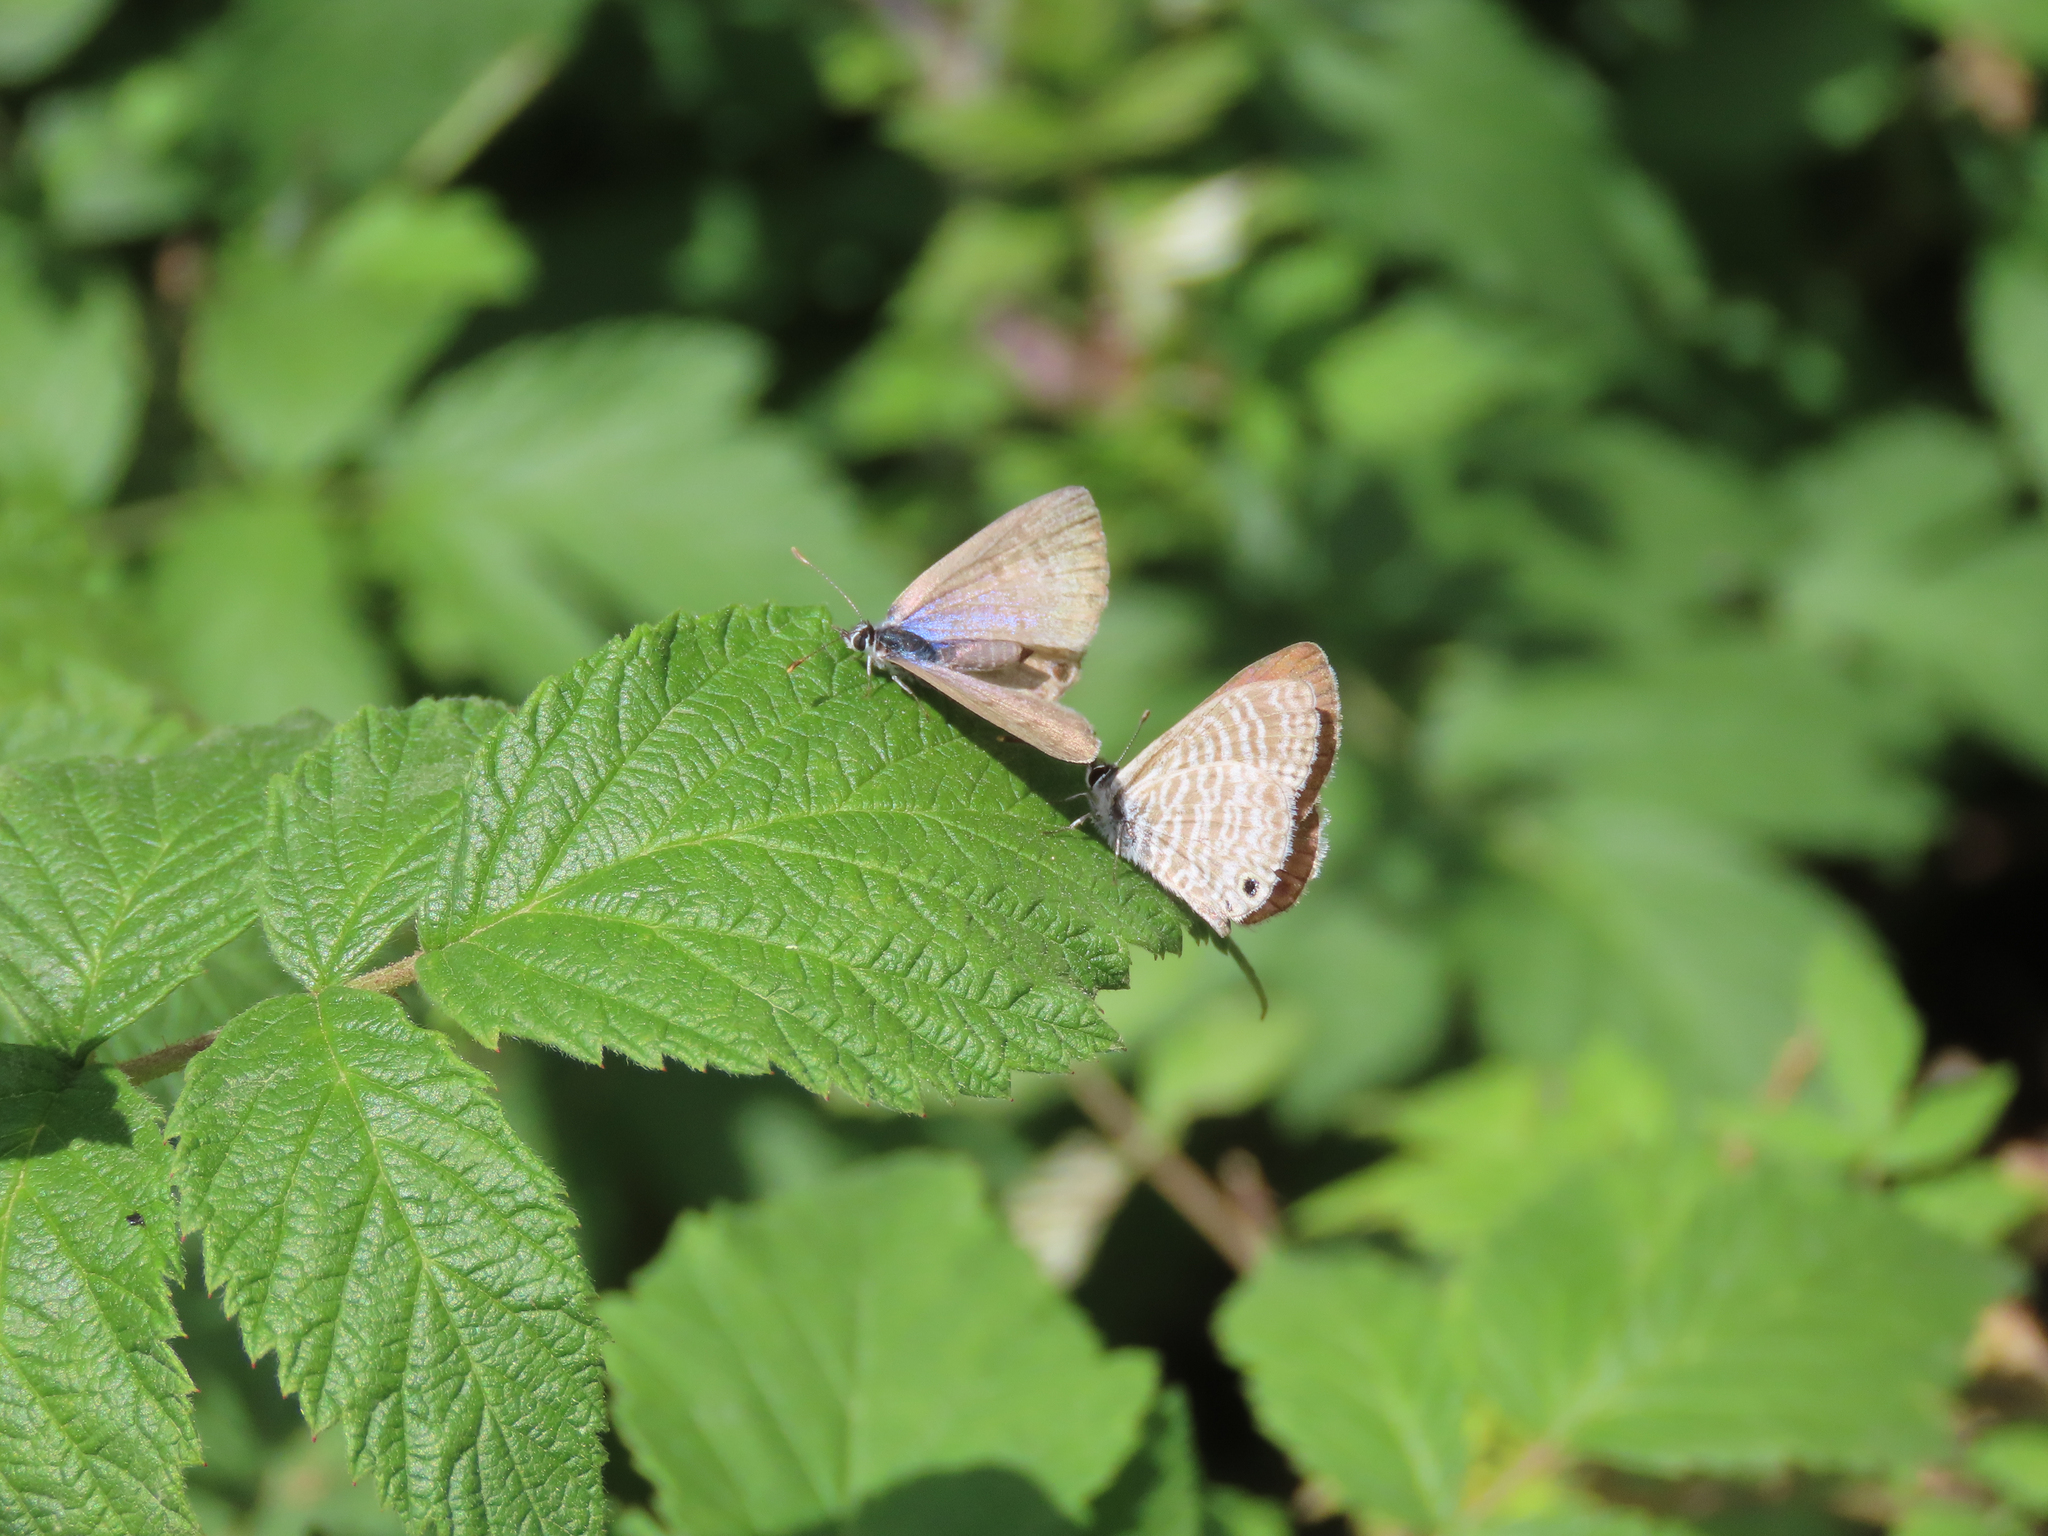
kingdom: Animalia
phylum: Arthropoda
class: Insecta
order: Lepidoptera
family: Lycaenidae
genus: Leptotes
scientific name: Leptotes marina
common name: Marine blue
